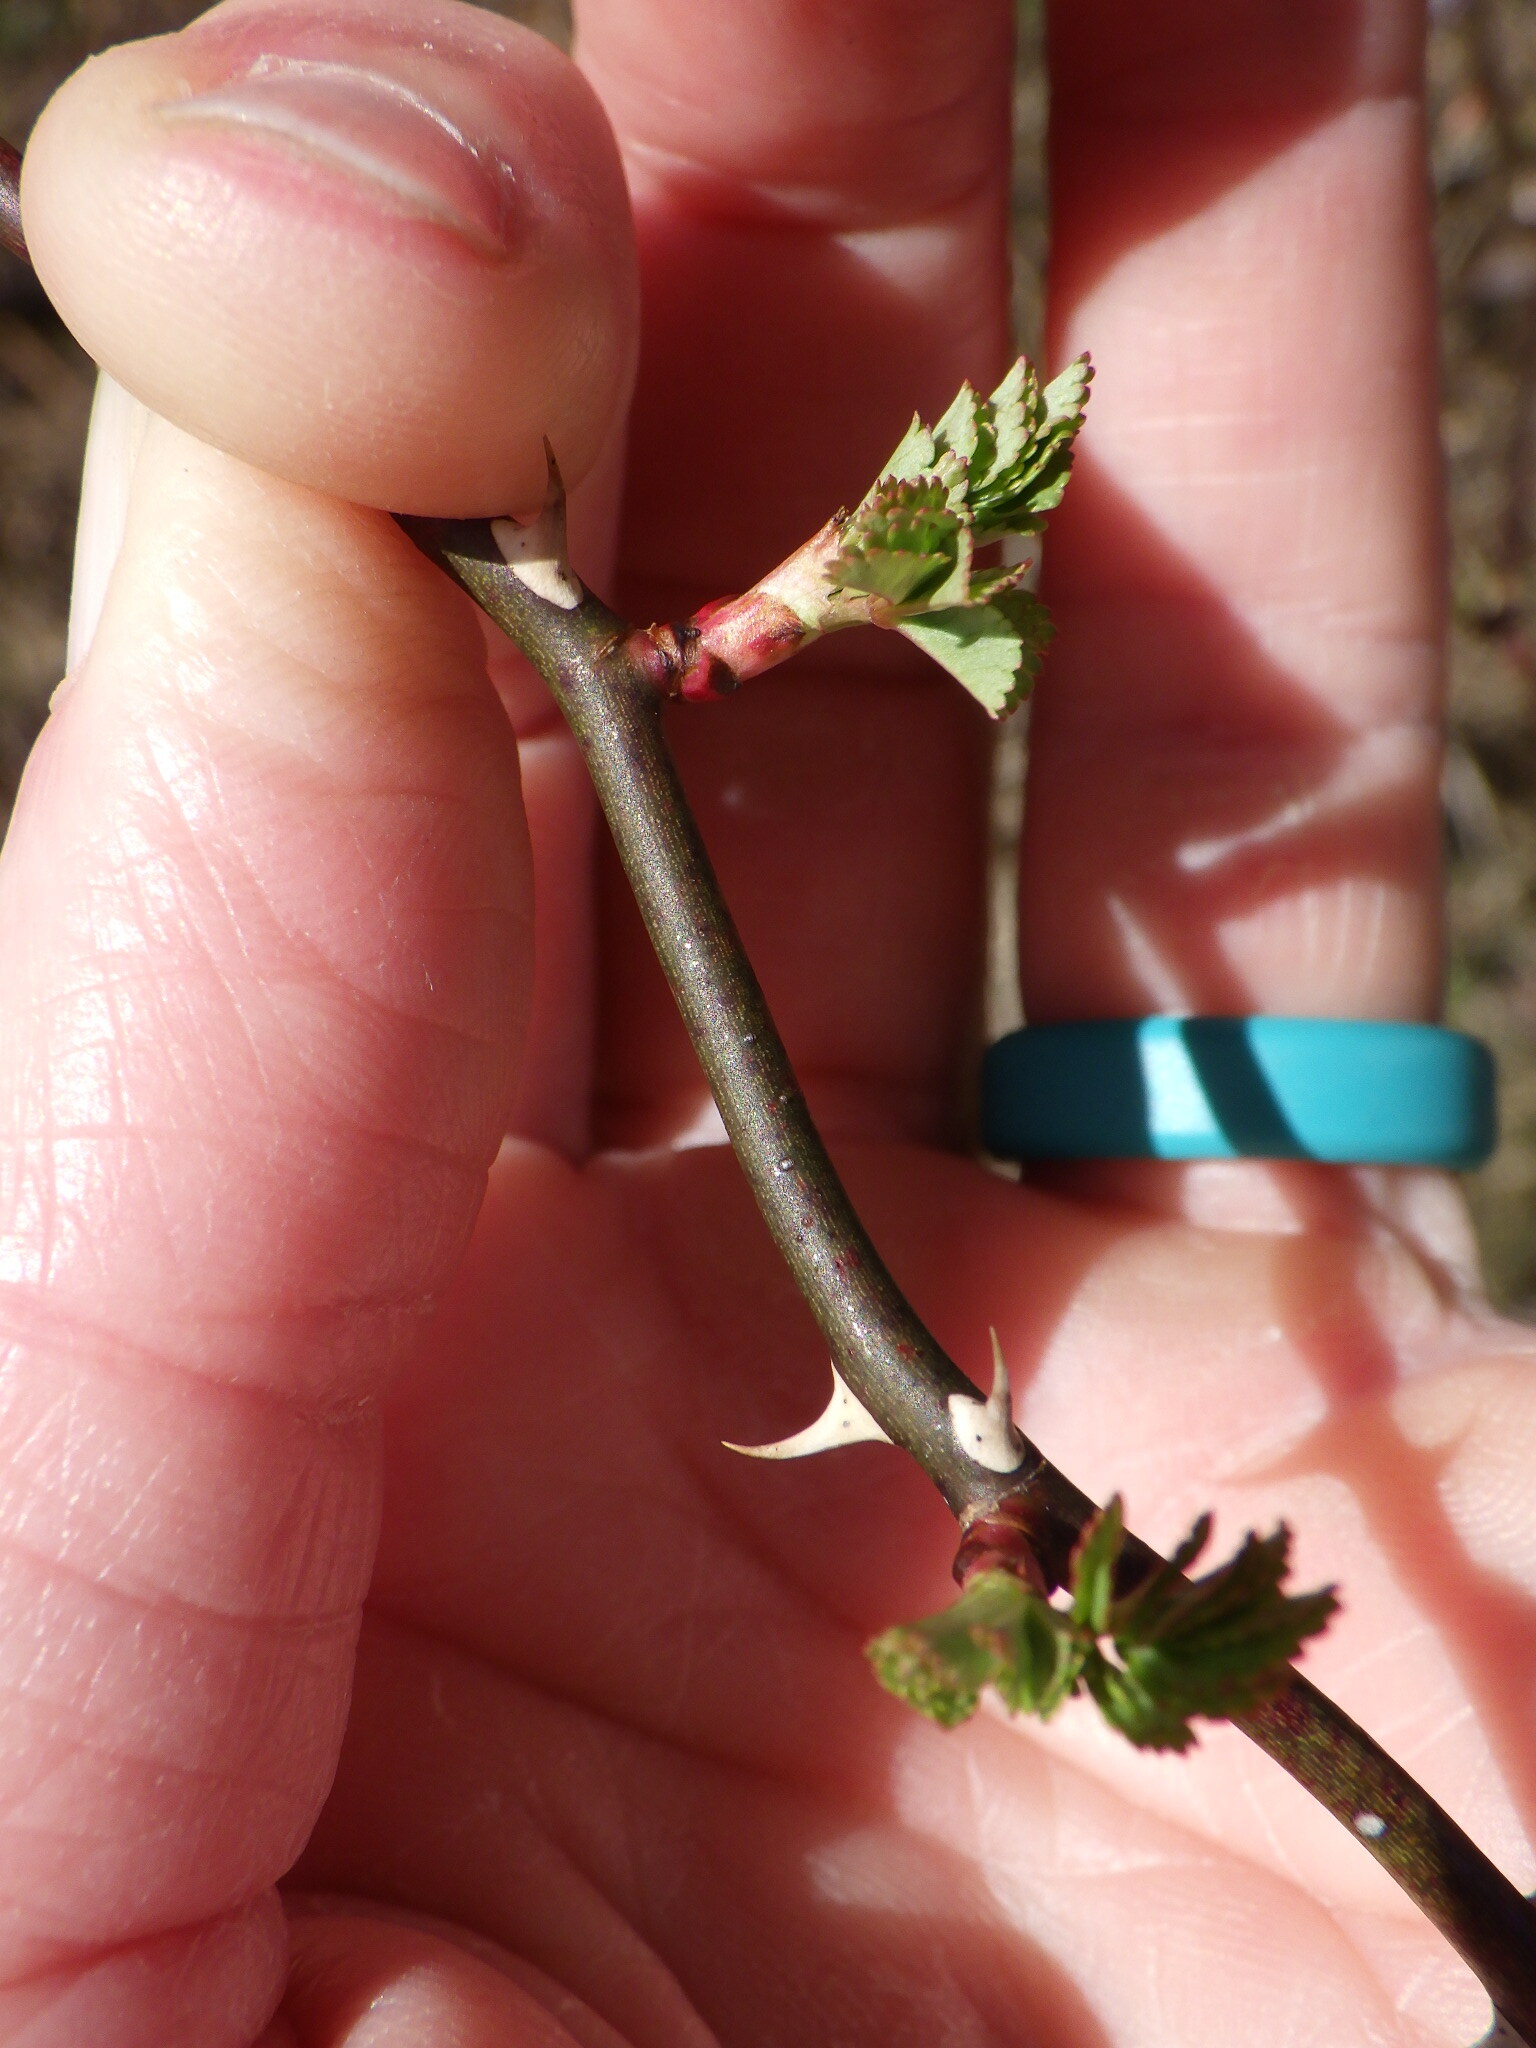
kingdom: Plantae
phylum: Tracheophyta
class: Magnoliopsida
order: Rosales
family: Rosaceae
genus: Rosa
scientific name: Rosa multiflora
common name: Multiflora rose
